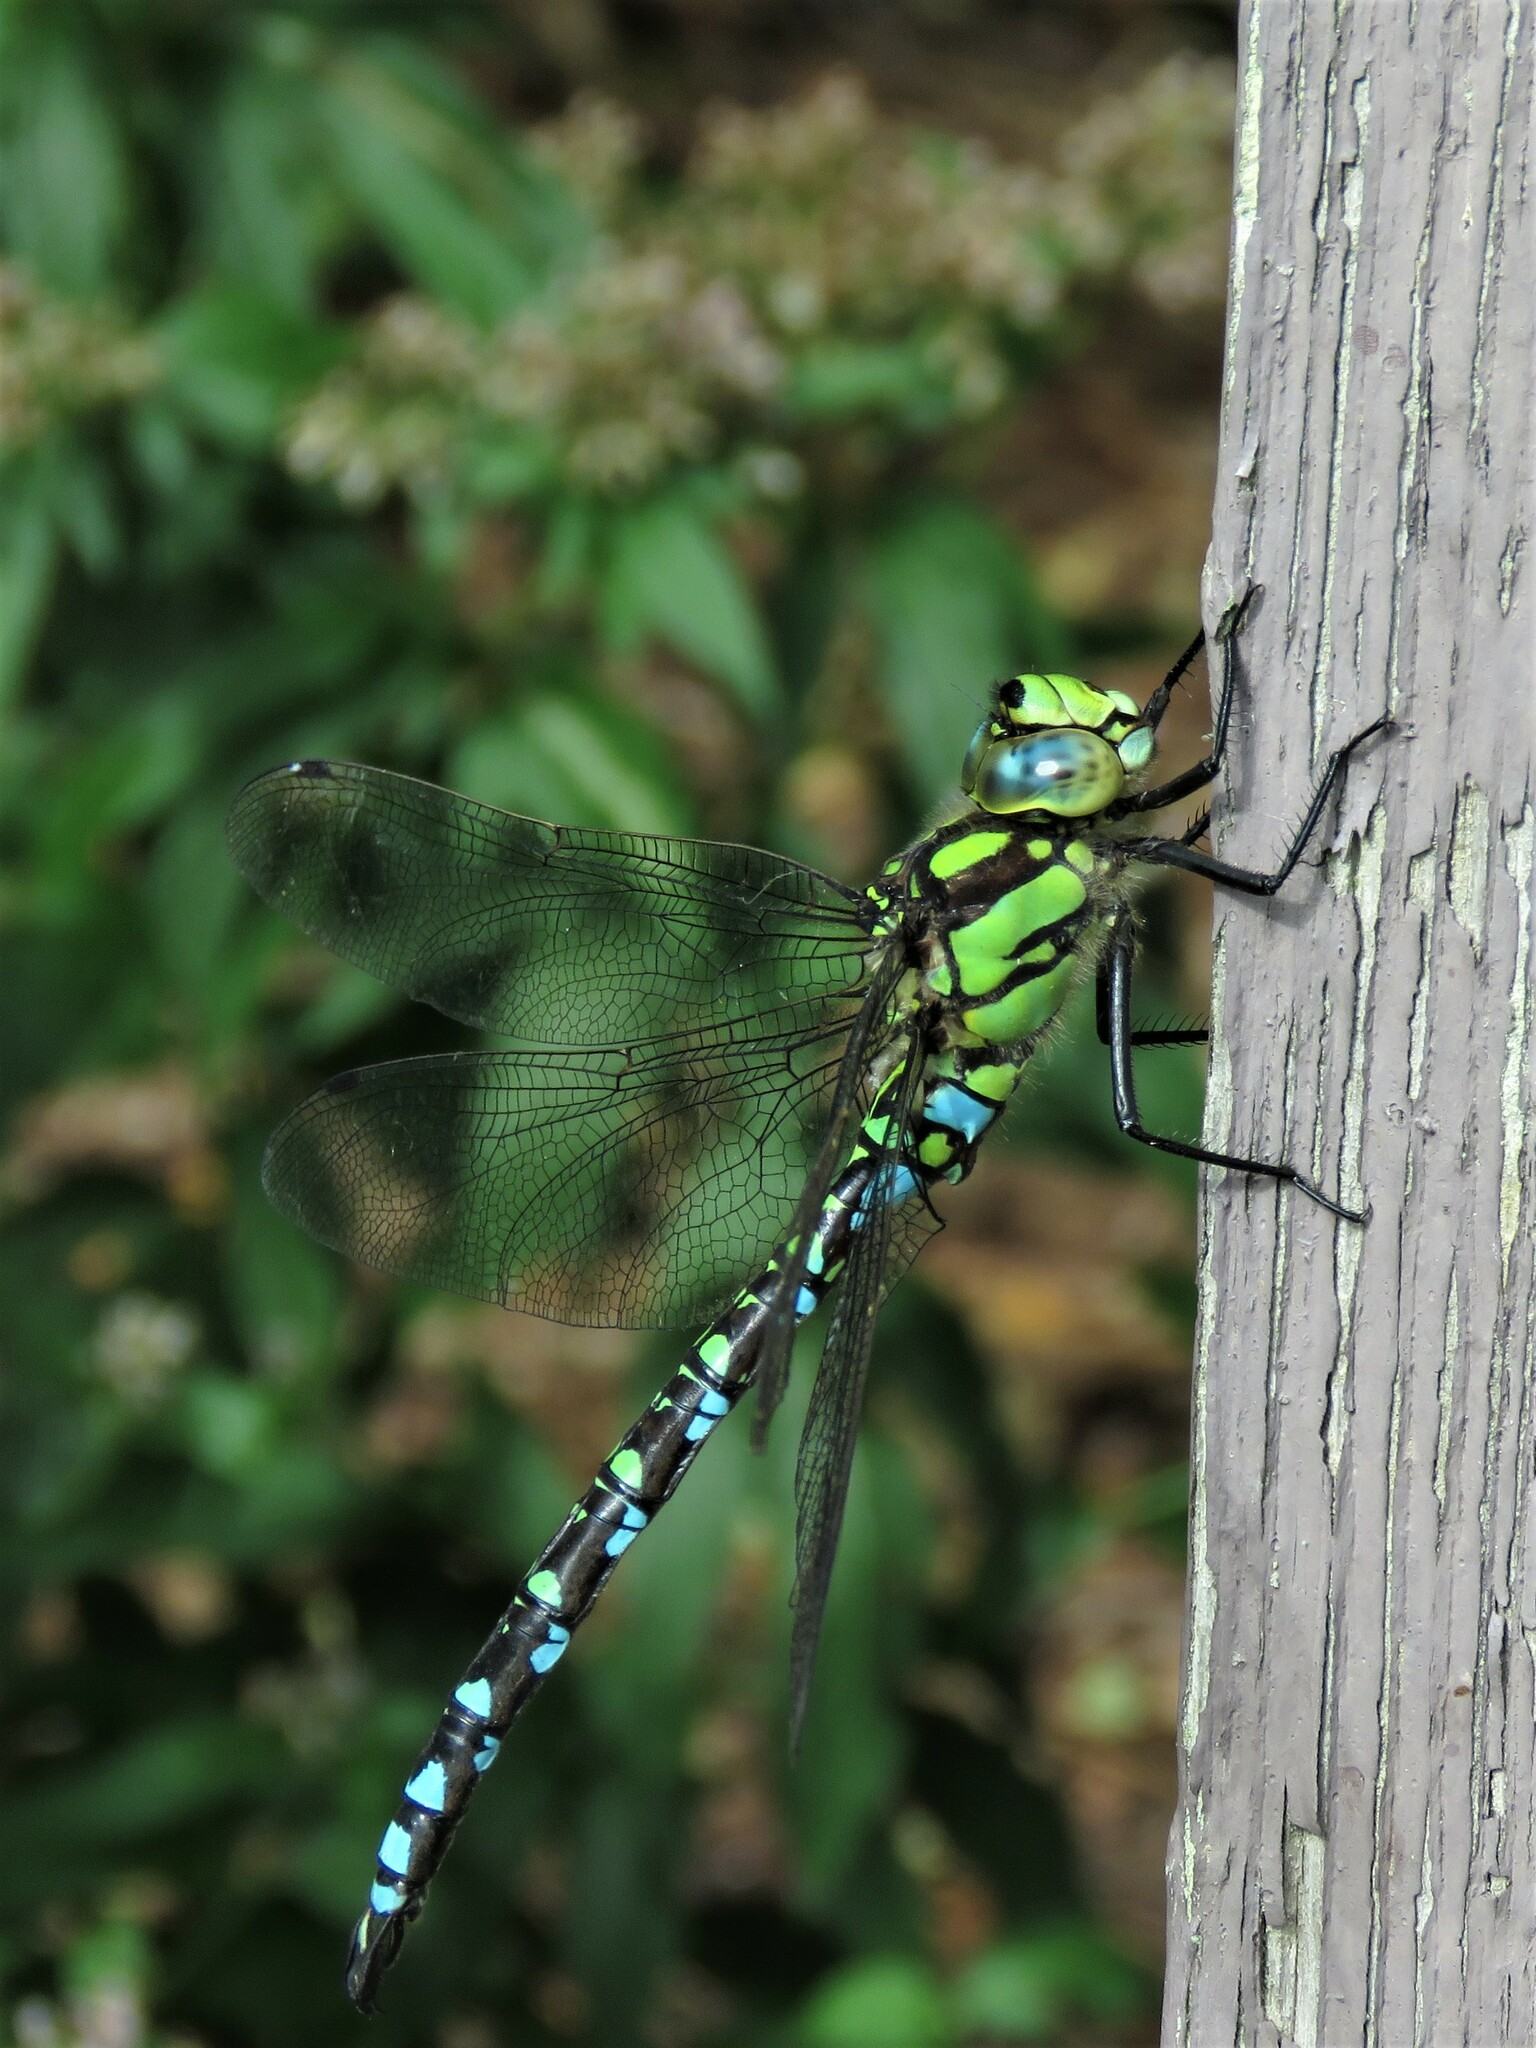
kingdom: Animalia
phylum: Arthropoda
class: Insecta
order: Odonata
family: Aeshnidae
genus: Aeshna
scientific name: Aeshna cyanea
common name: Southern hawker
